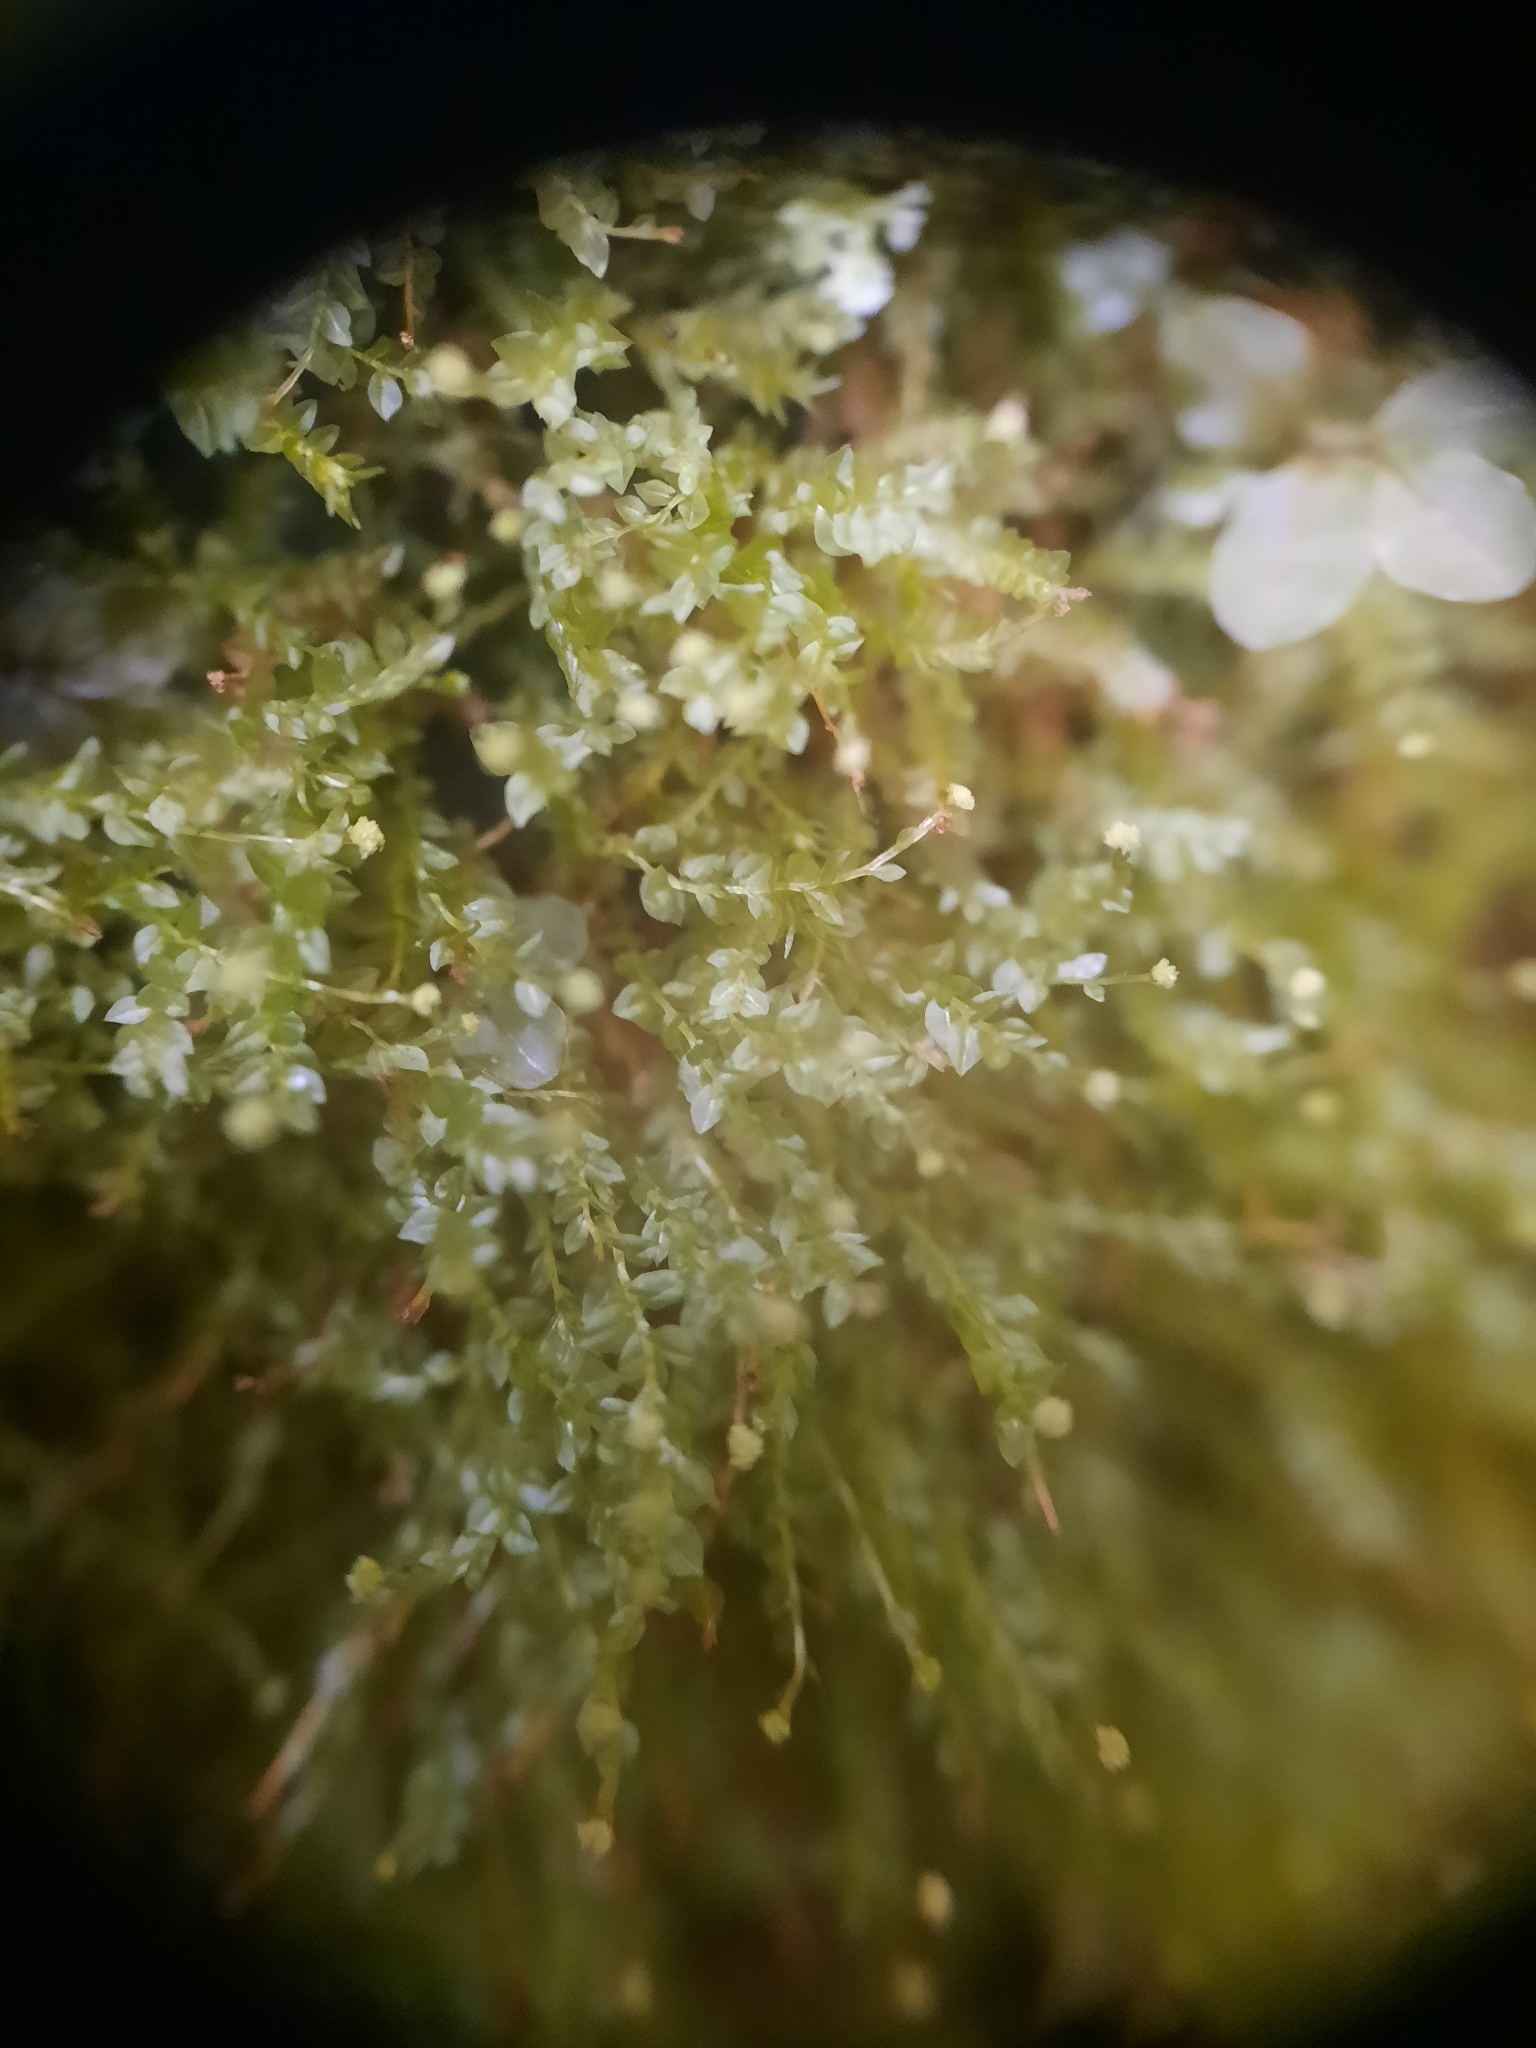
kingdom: Plantae
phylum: Bryophyta
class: Polytrichopsida
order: Tetraphidales
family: Tetraphidaceae
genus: Tetraphis
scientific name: Tetraphis pellucida
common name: Common four-toothed moss
